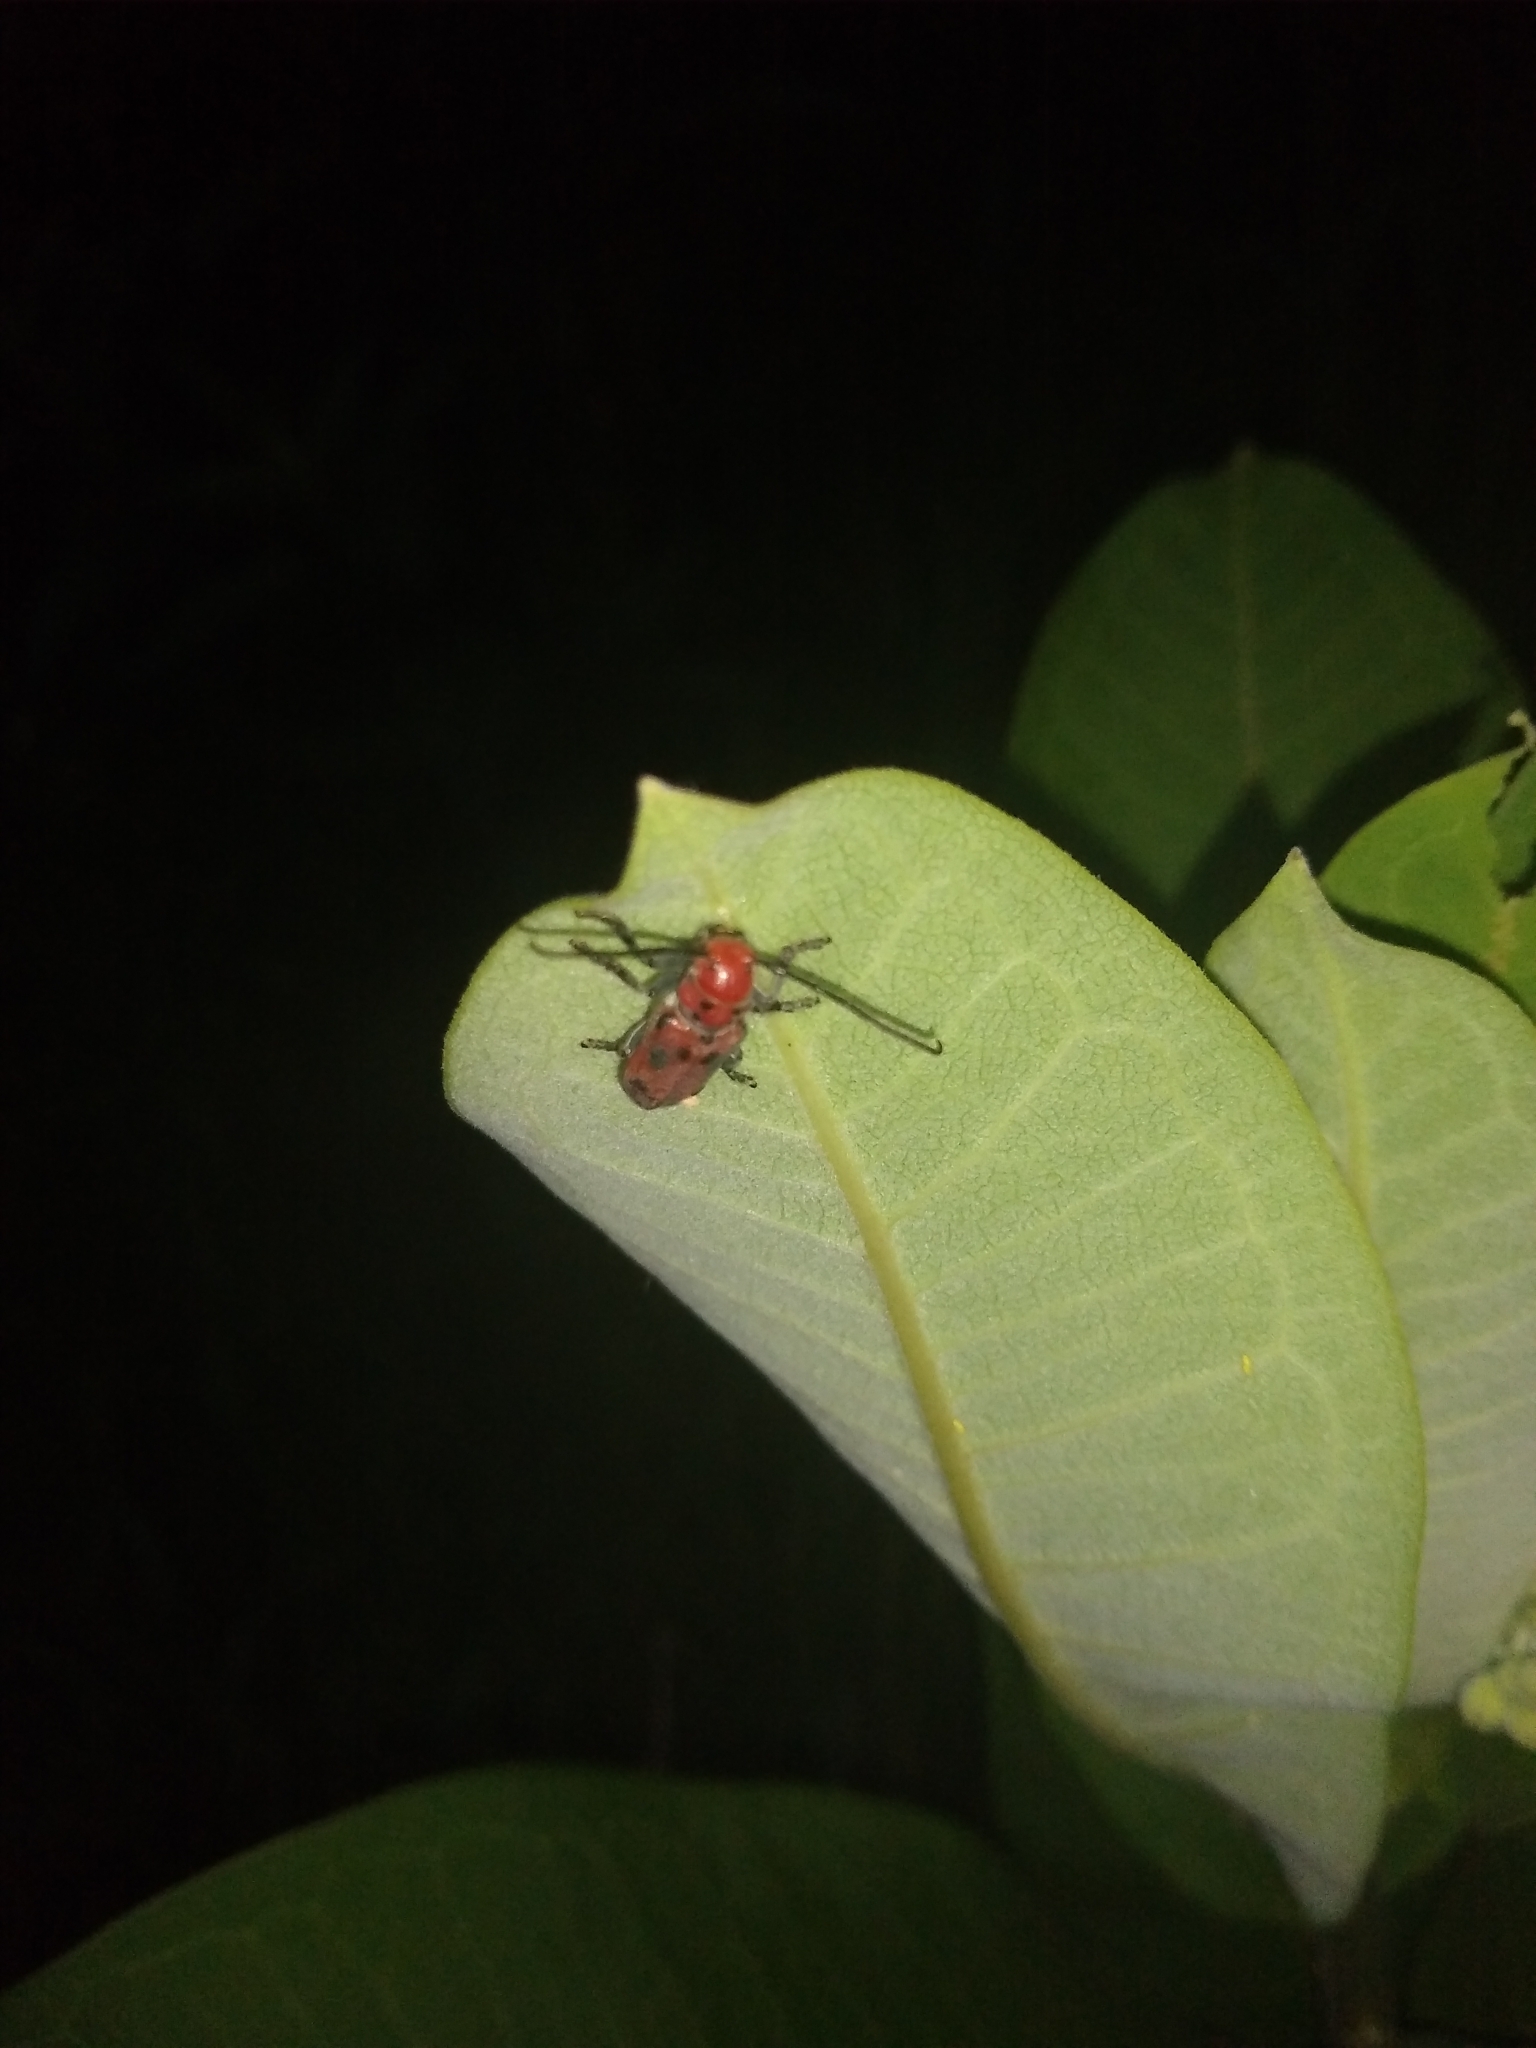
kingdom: Plantae
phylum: Tracheophyta
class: Magnoliopsida
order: Gentianales
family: Apocynaceae
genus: Asclepias
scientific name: Asclepias syriaca
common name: Common milkweed
